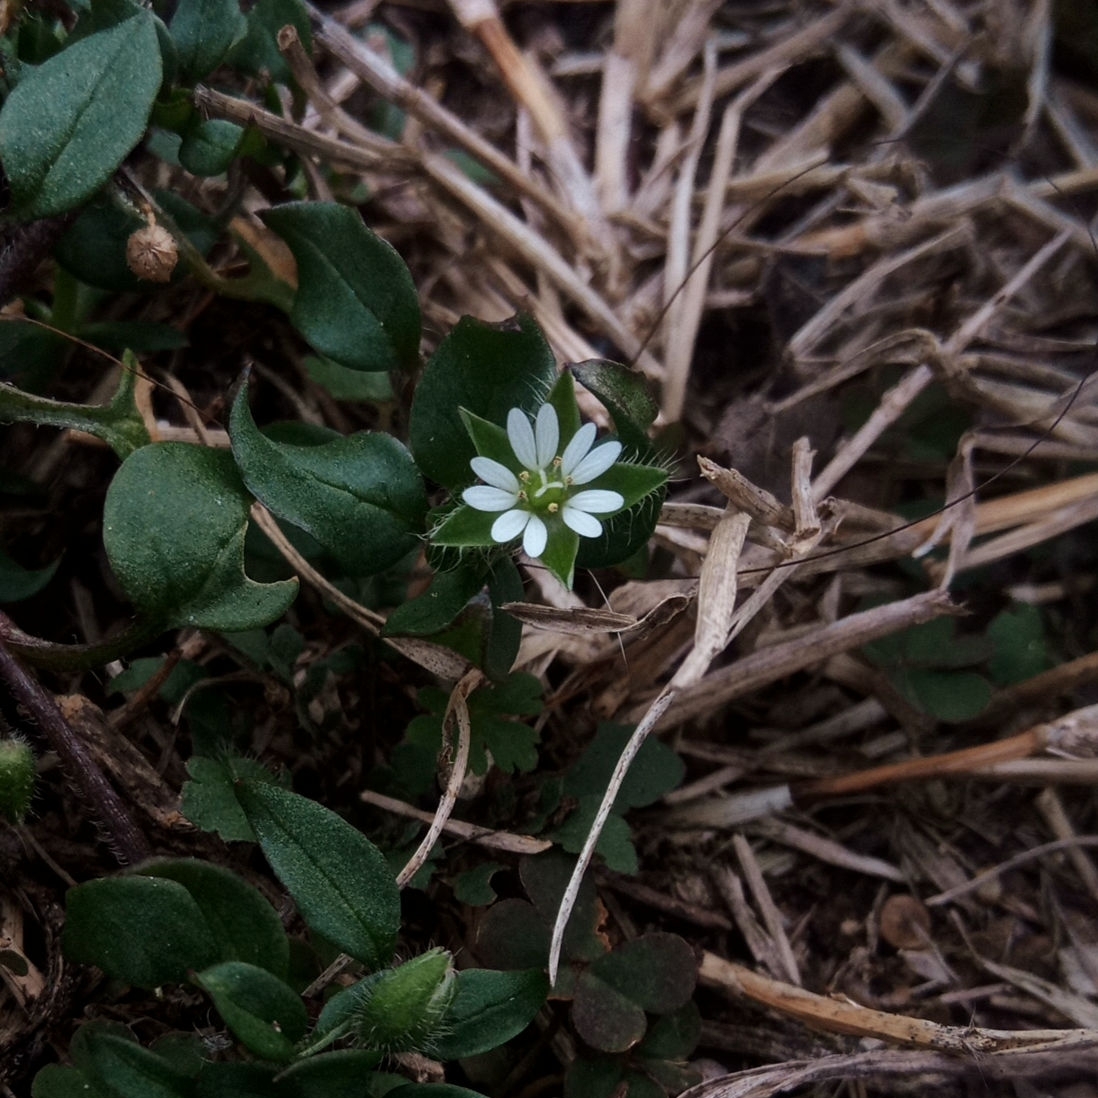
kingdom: Plantae
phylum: Tracheophyta
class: Magnoliopsida
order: Caryophyllales
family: Caryophyllaceae
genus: Stellaria
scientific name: Stellaria media
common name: Common chickweed
